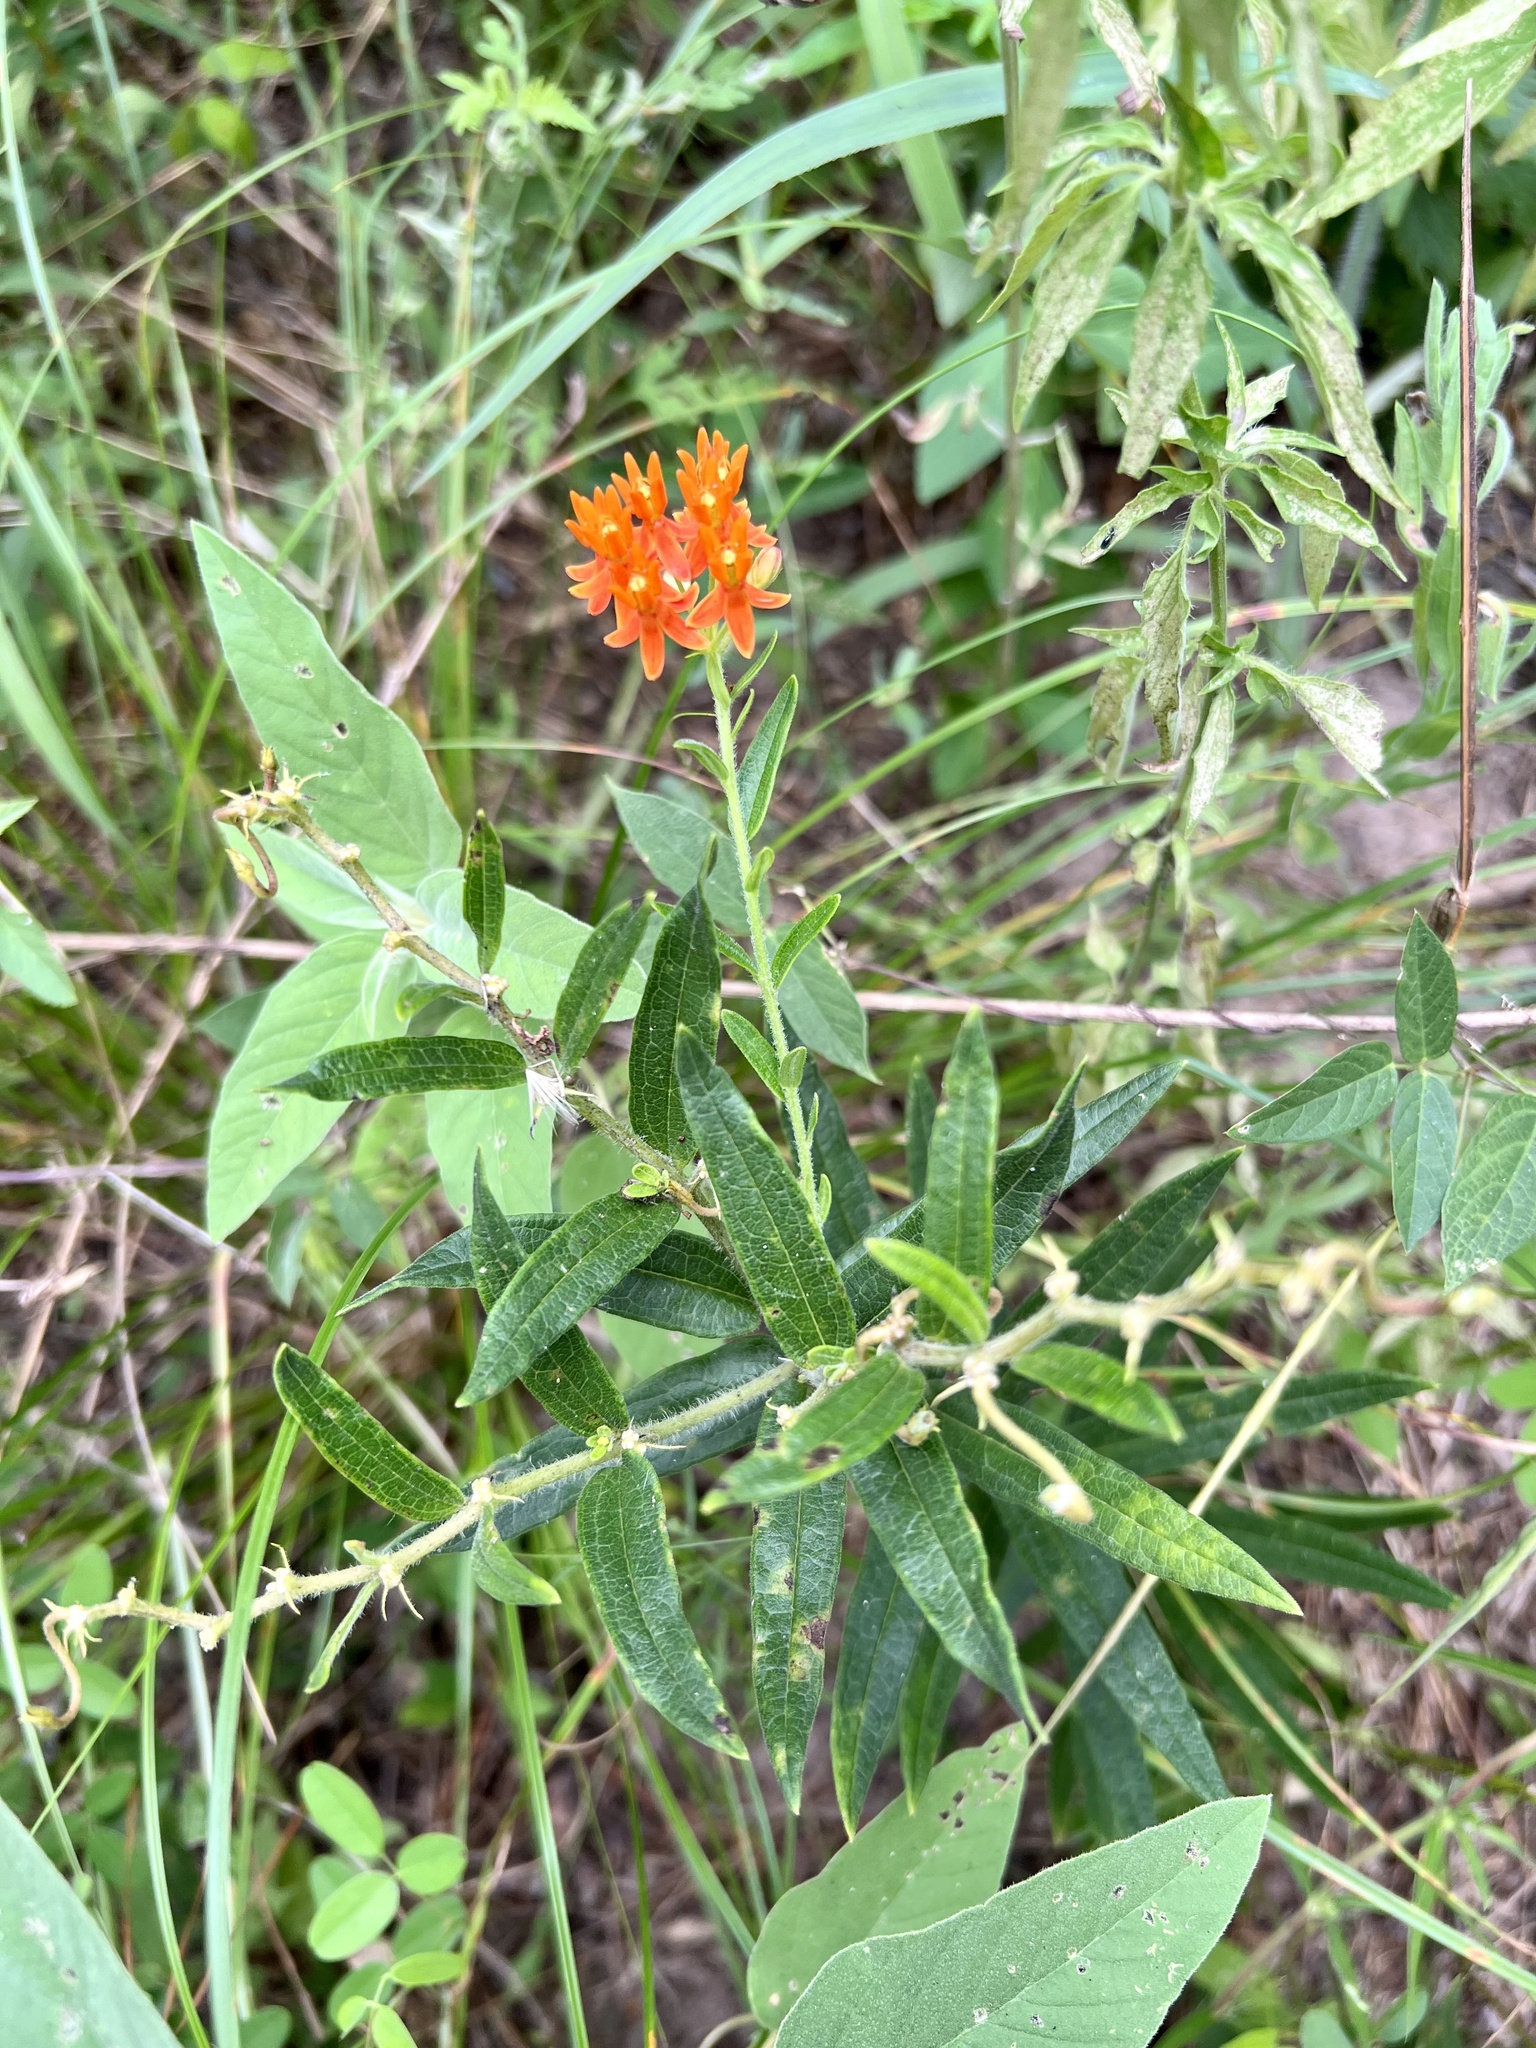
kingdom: Plantae
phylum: Tracheophyta
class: Magnoliopsida
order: Gentianales
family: Apocynaceae
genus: Asclepias
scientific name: Asclepias tuberosa
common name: Butterfly milkweed
